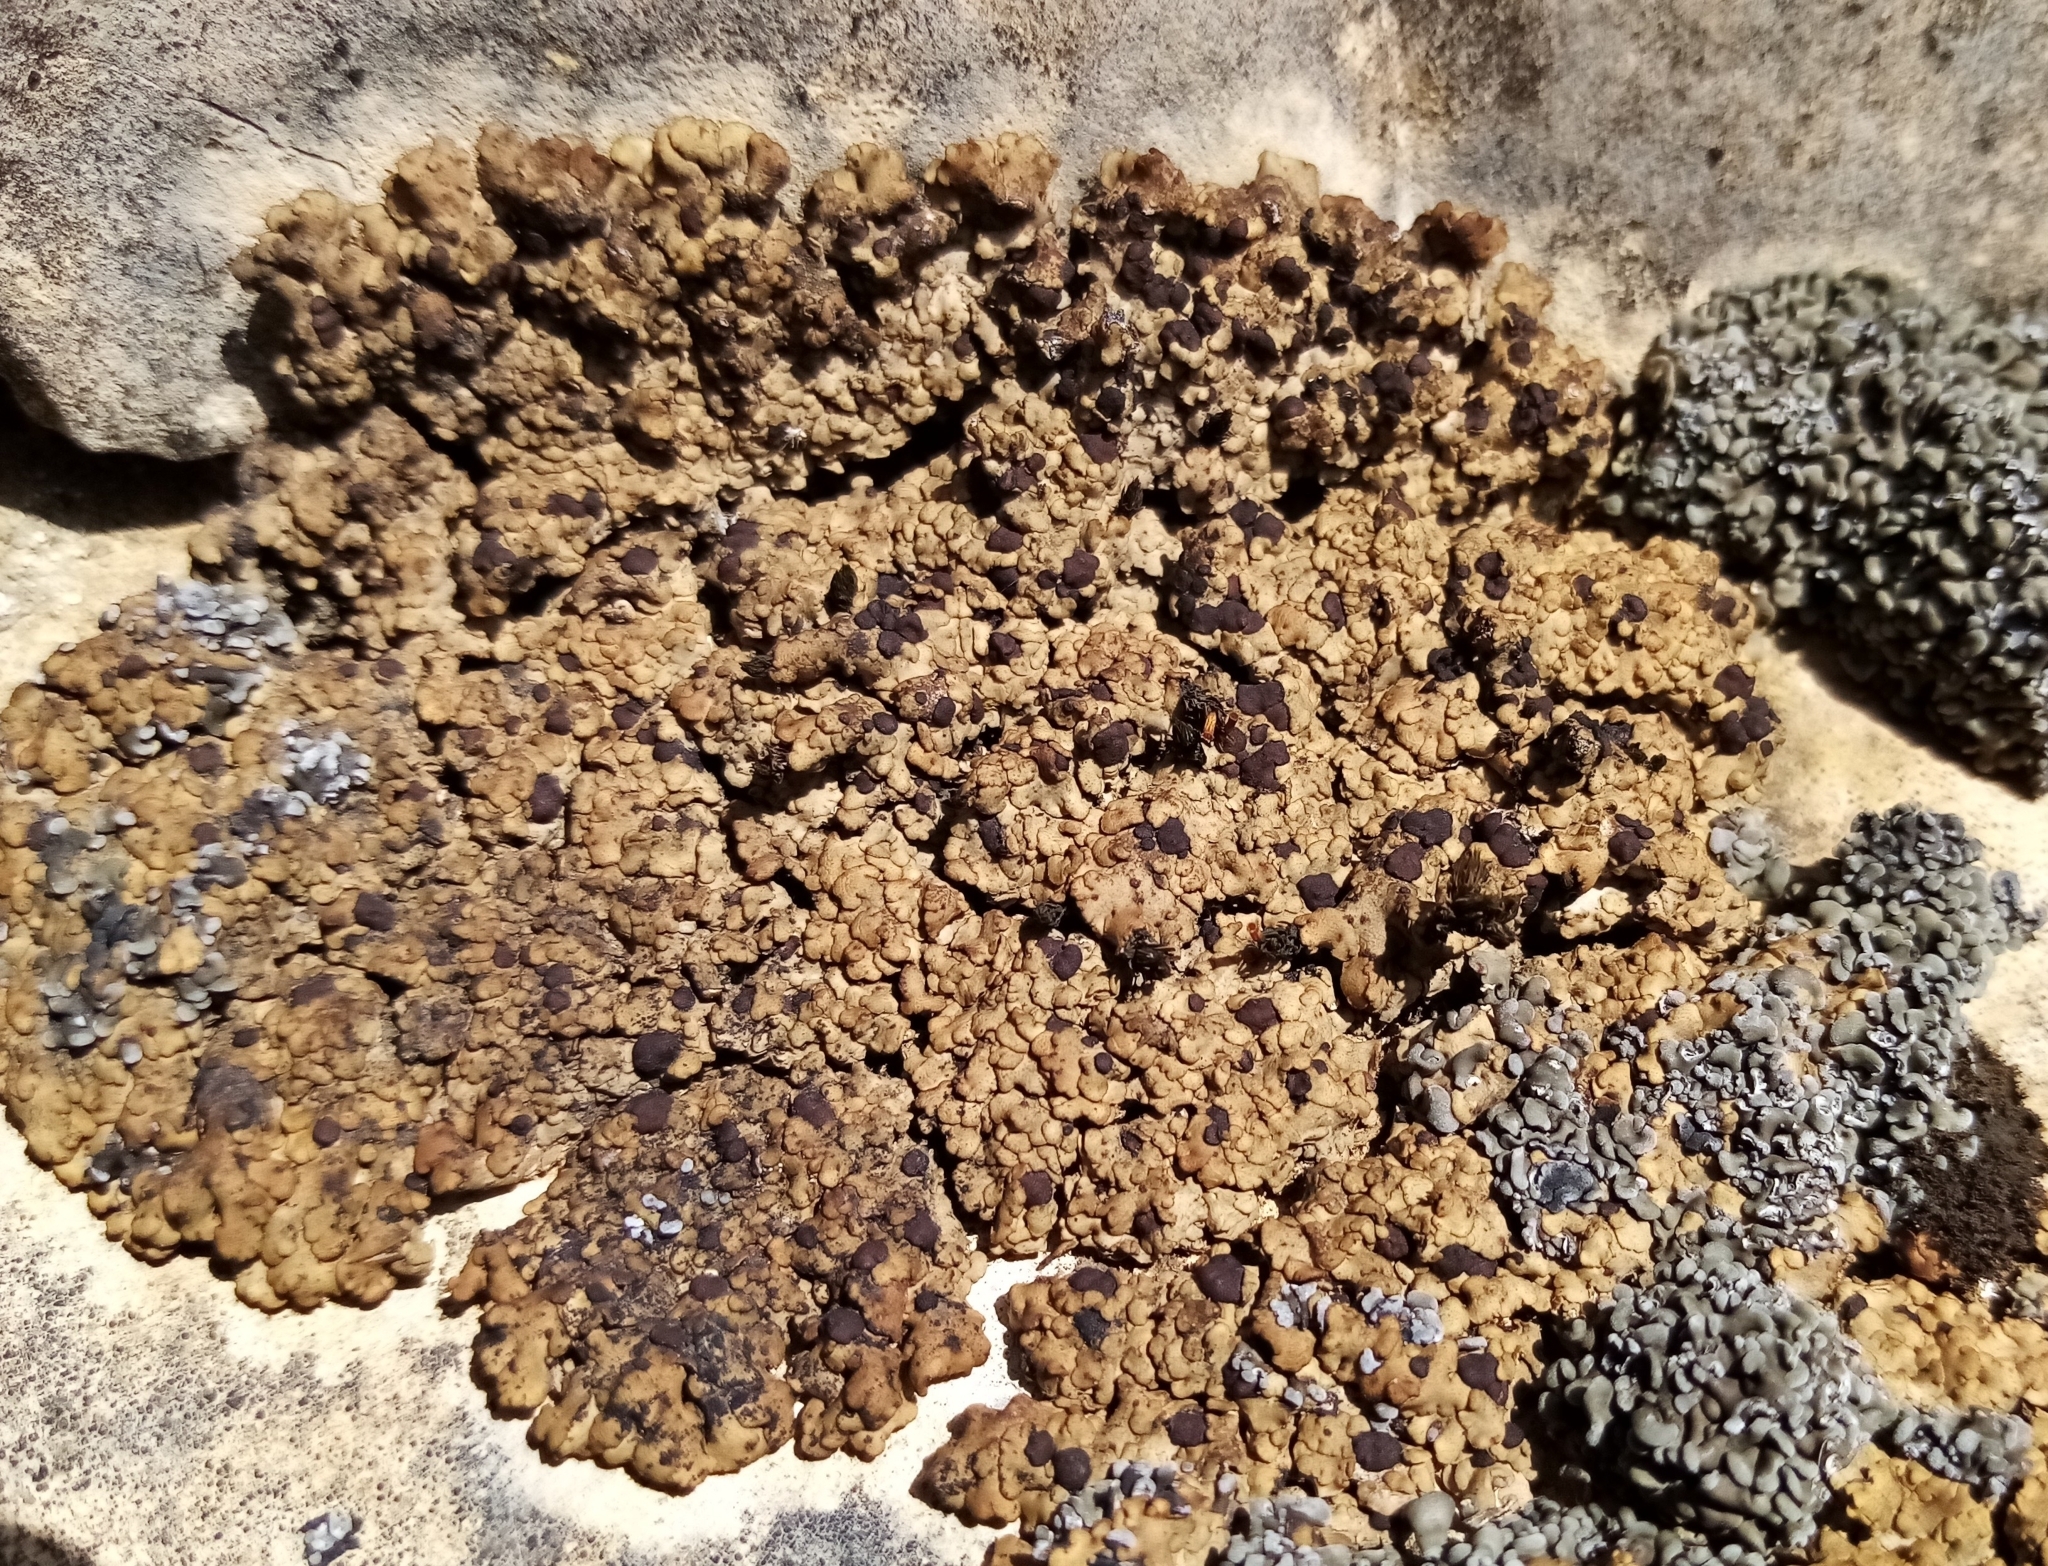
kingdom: Fungi
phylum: Ascomycota
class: Lecanoromycetes
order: Lecideales
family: Lecideaceae
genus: Romjularia
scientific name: Romjularia lurida
